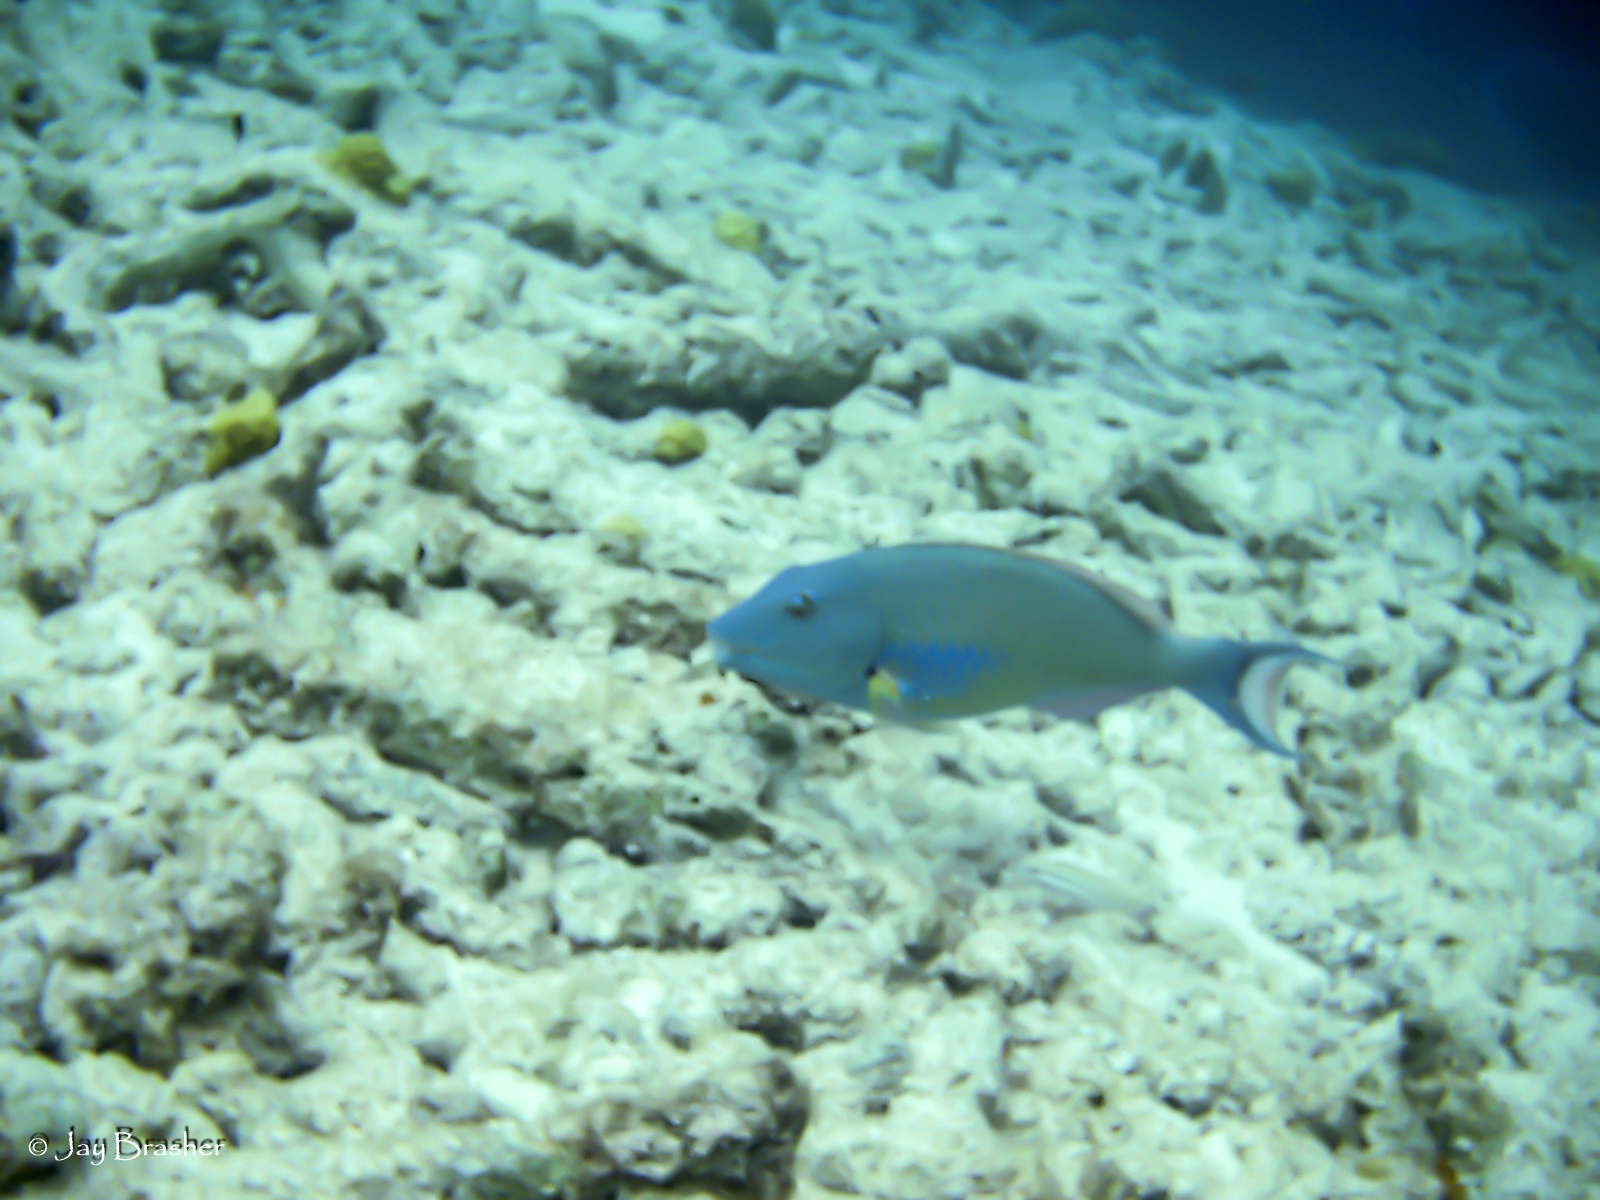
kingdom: Animalia
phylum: Chordata
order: Perciformes
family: Scaridae
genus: Sparisoma
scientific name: Sparisoma chrysopterum
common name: Redtail parrotfish
